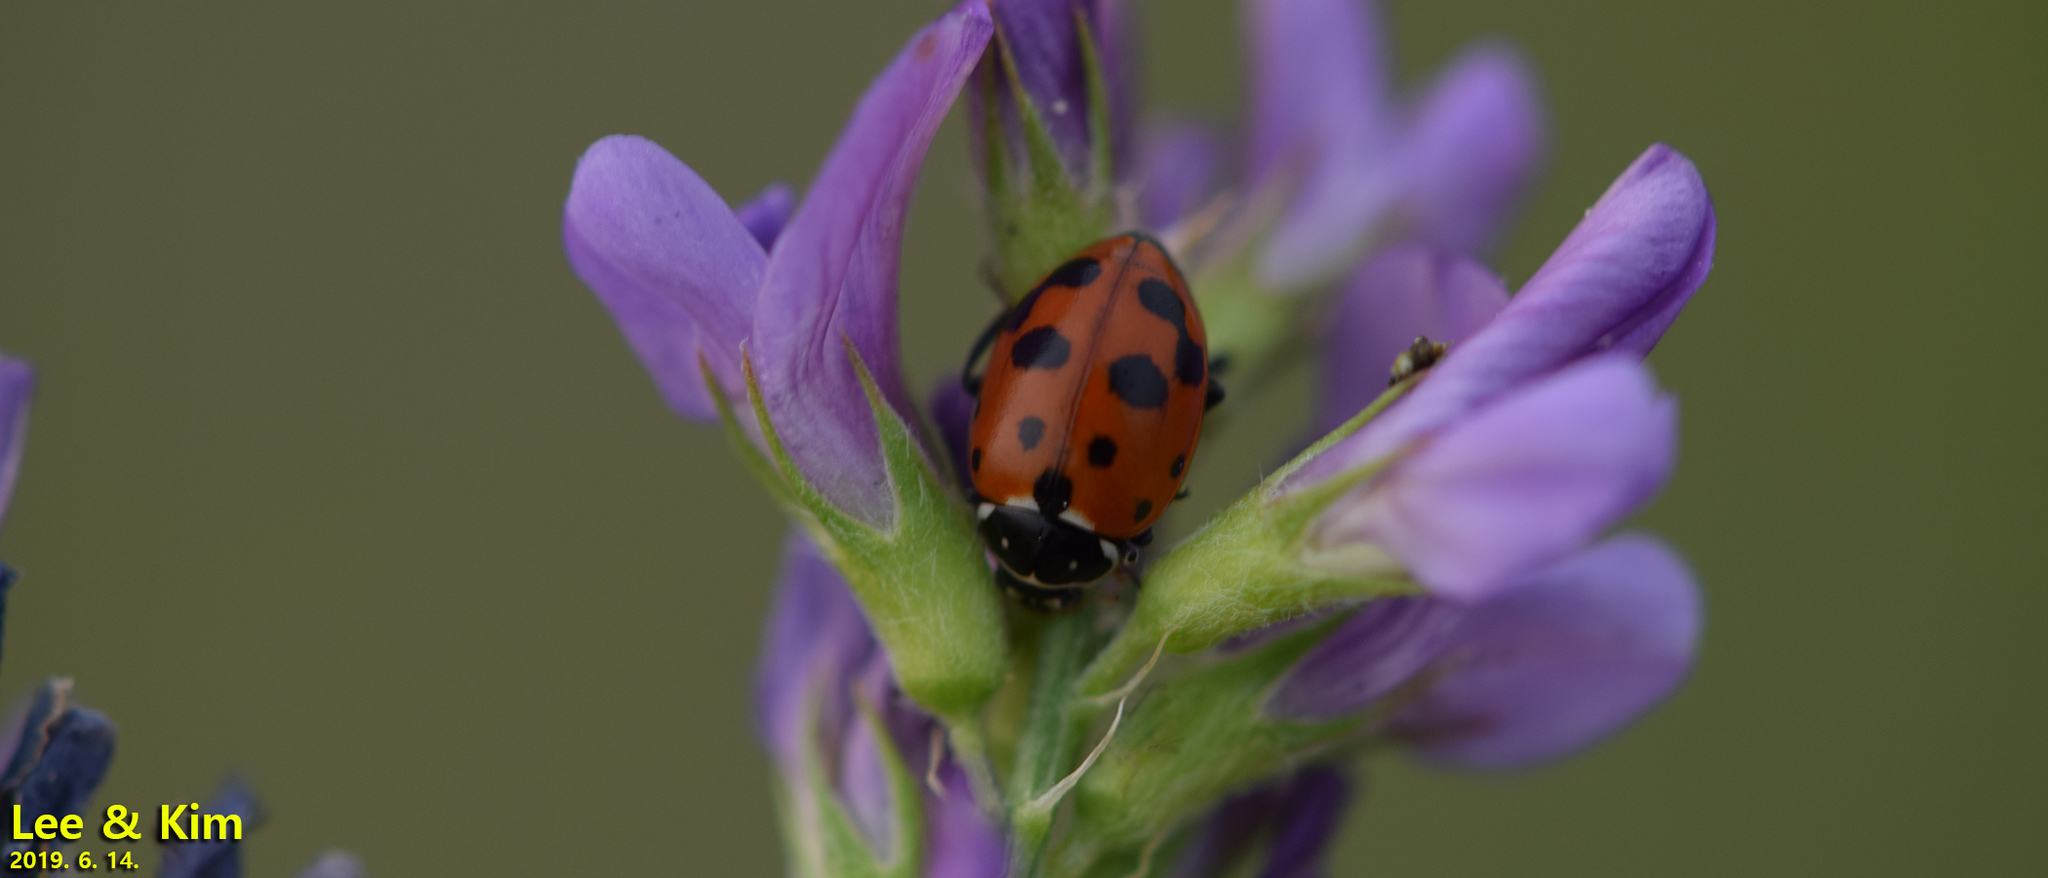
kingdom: Animalia
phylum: Arthropoda
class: Insecta
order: Coleoptera
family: Coccinellidae
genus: Hippodamia
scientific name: Hippodamia variegata
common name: Ladybird beetle
